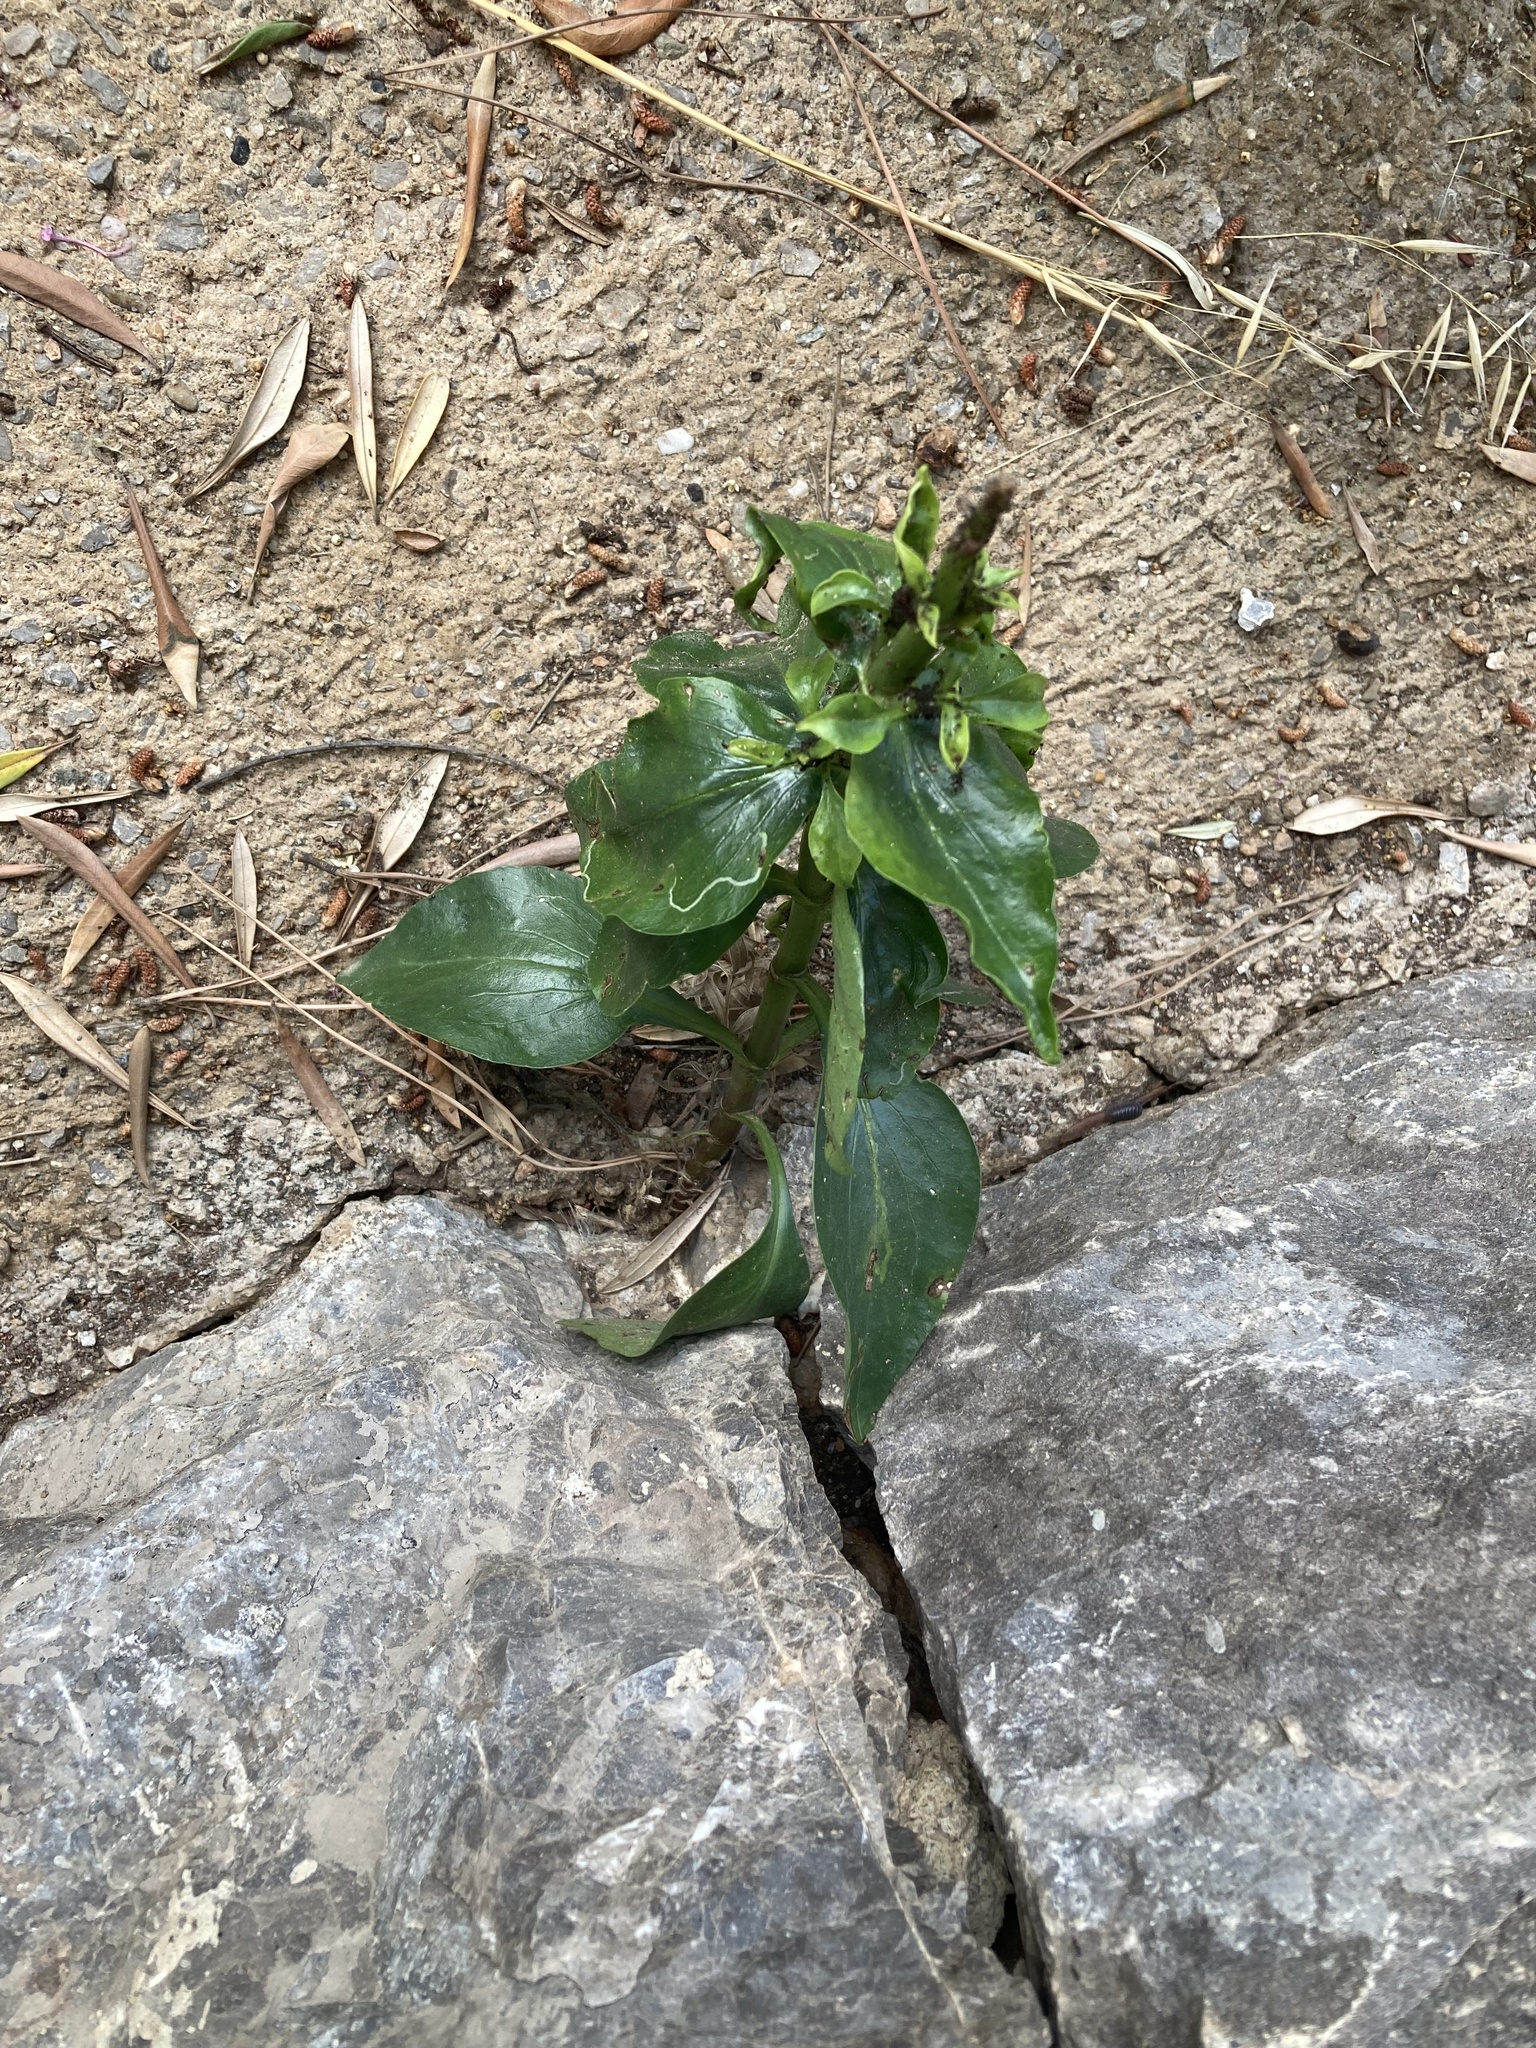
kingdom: Plantae
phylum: Tracheophyta
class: Magnoliopsida
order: Dipsacales
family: Caprifoliaceae
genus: Centranthus
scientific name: Centranthus ruber
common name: Red valerian
